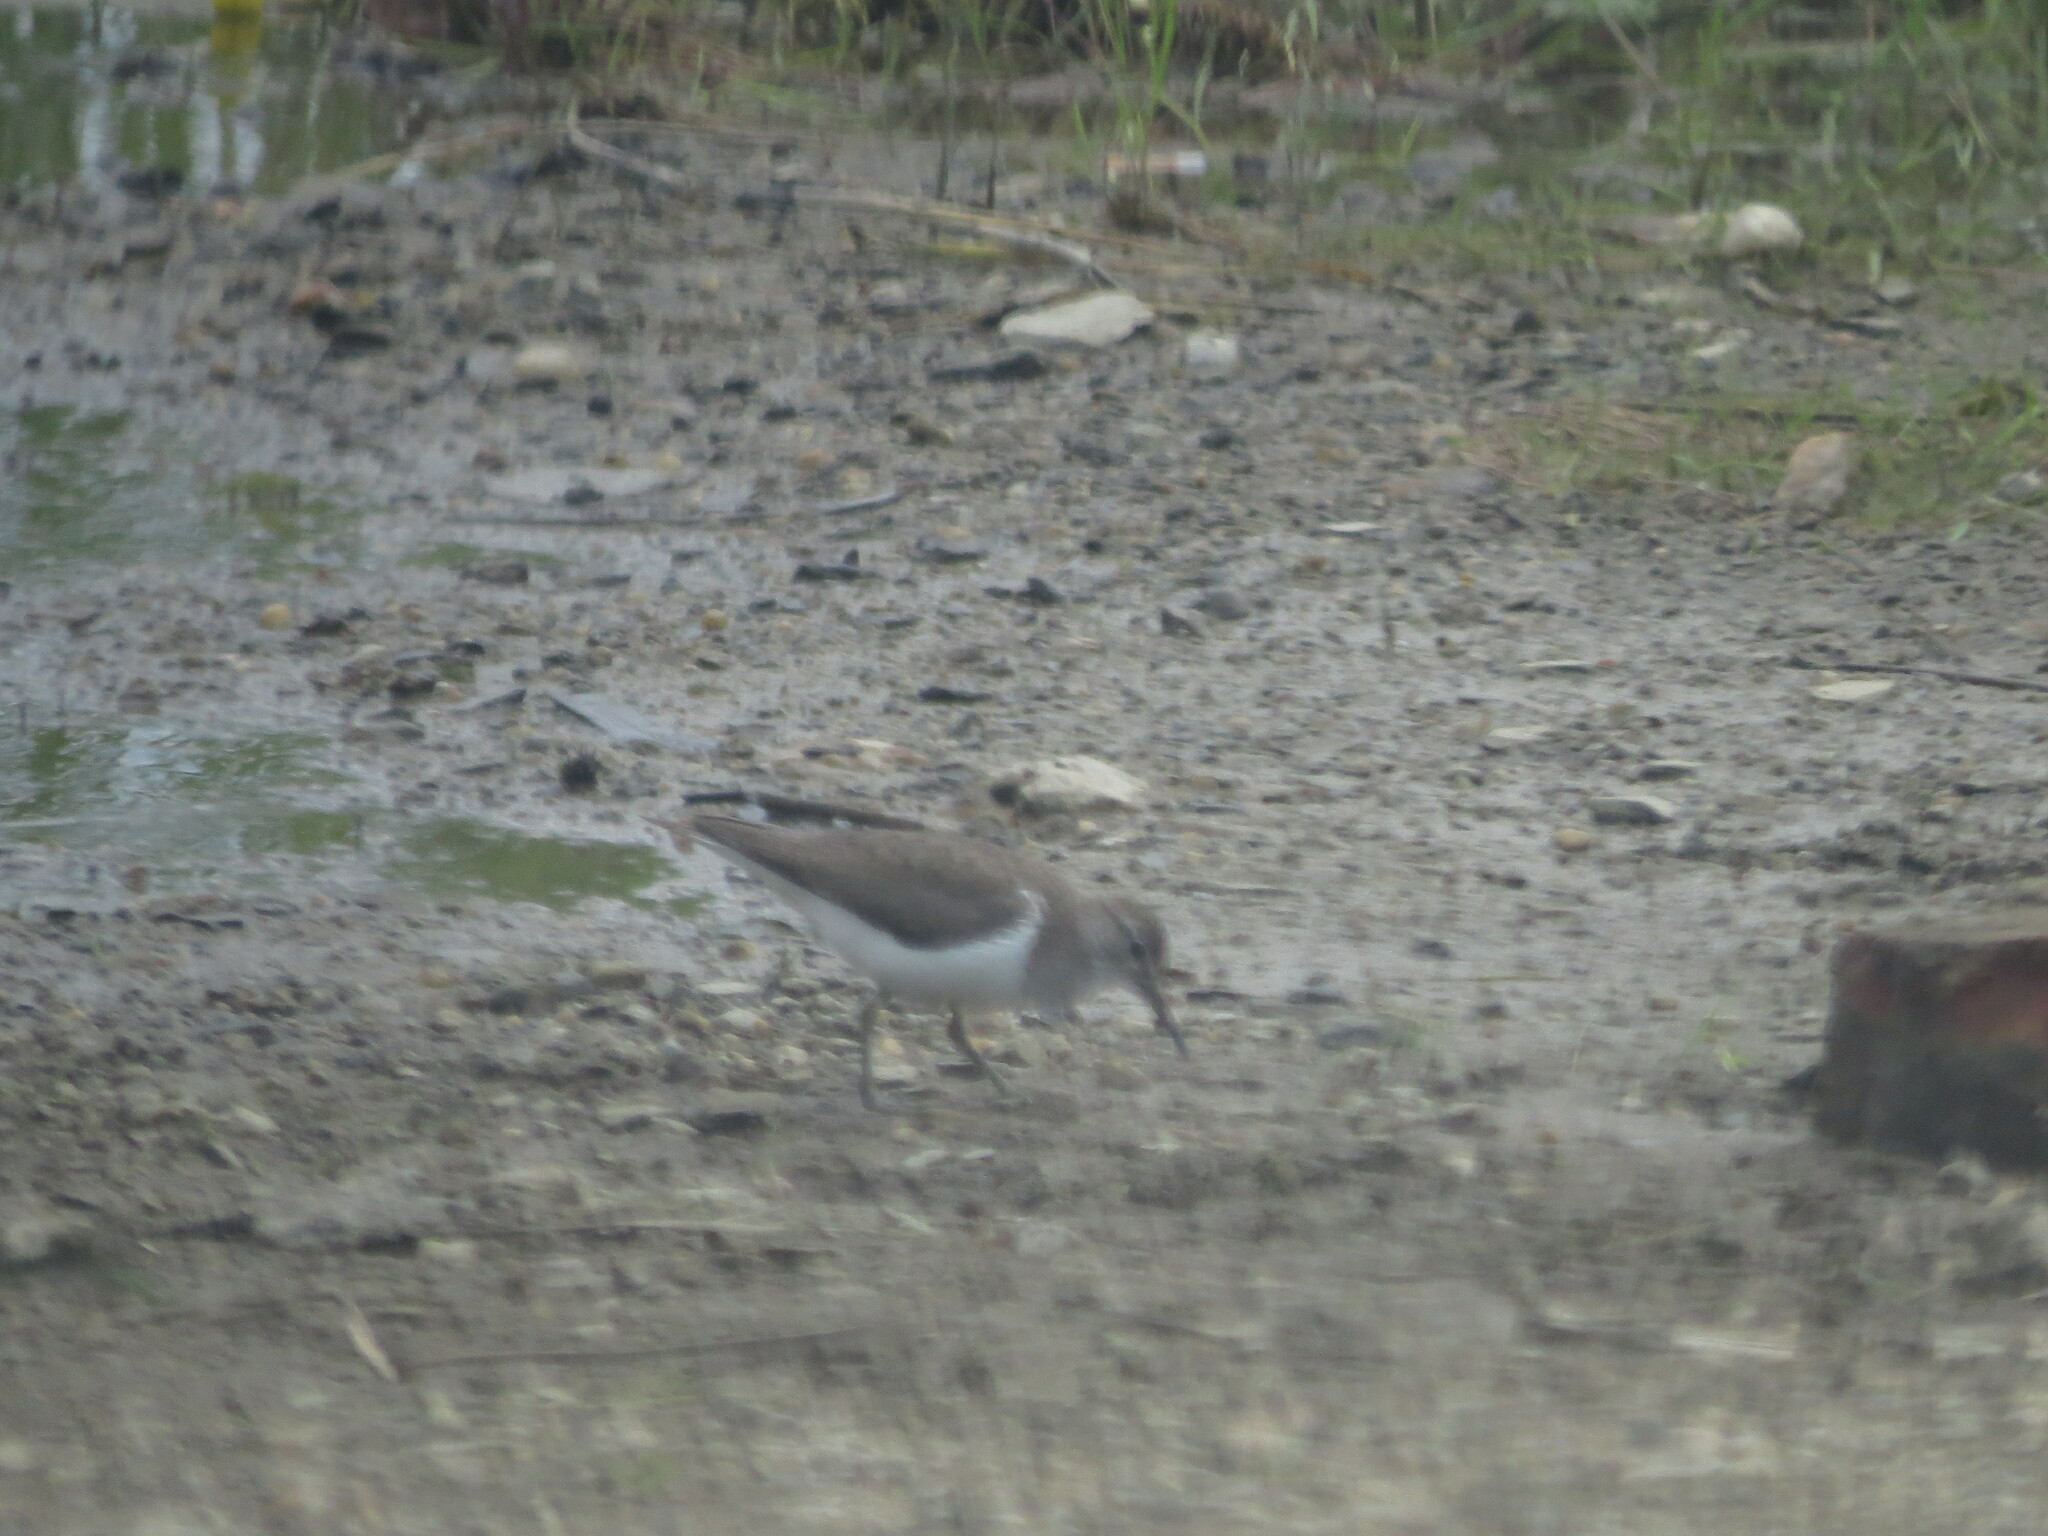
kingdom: Animalia
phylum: Chordata
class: Aves
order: Charadriiformes
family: Scolopacidae
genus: Actitis
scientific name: Actitis hypoleucos
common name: Common sandpiper
